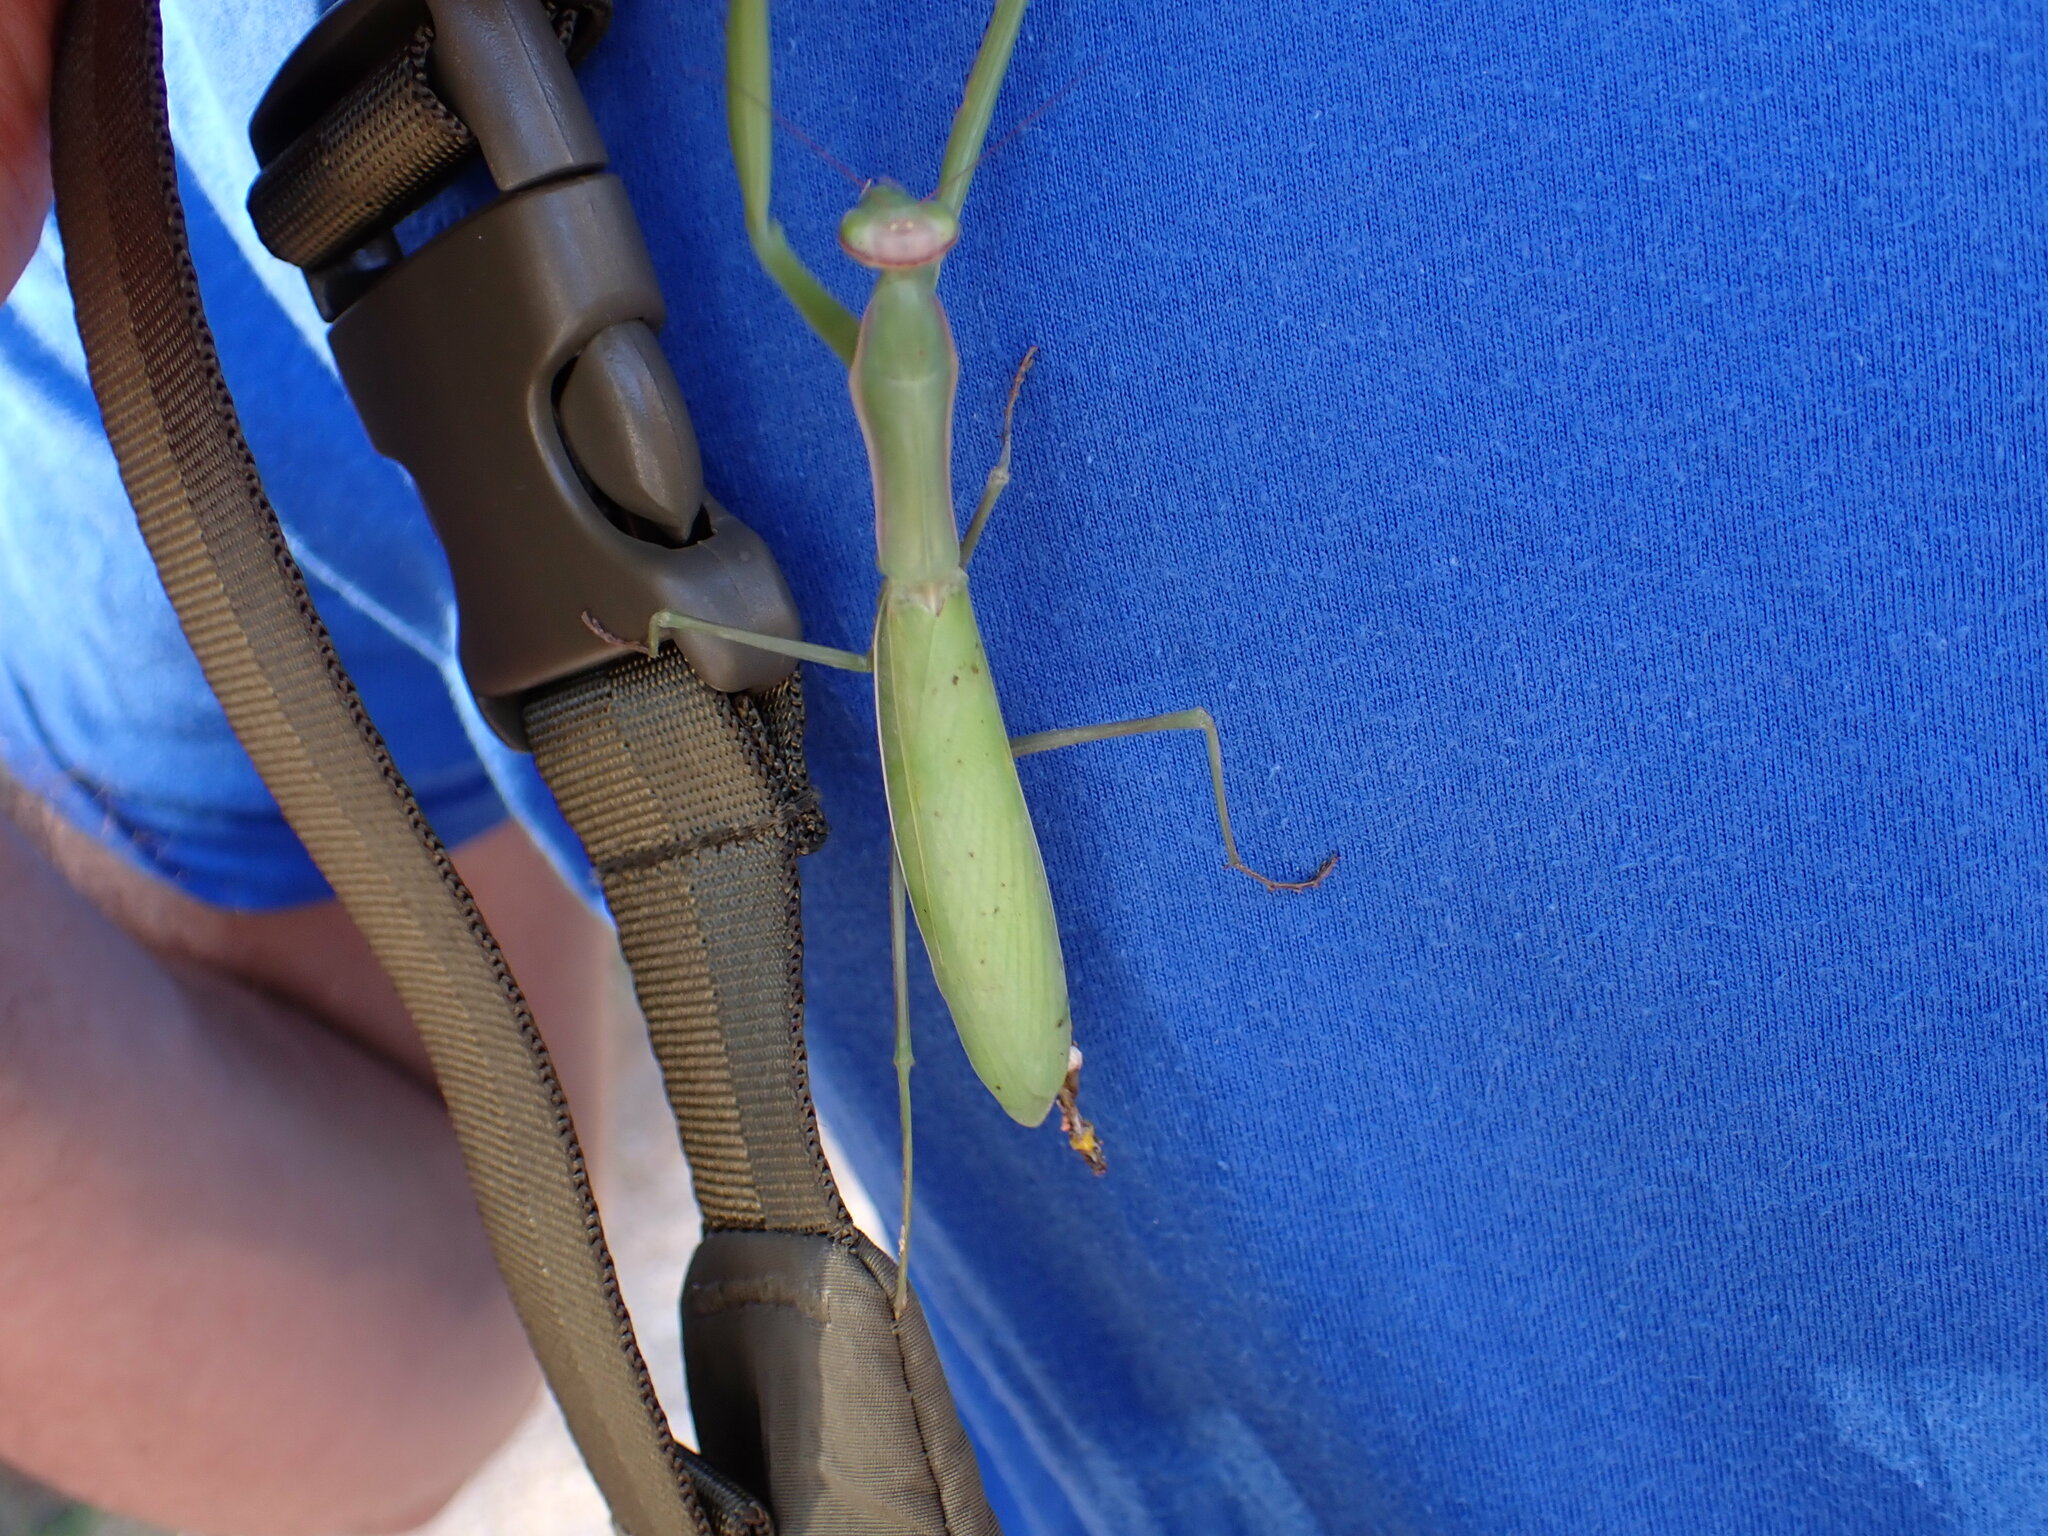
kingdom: Animalia
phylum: Arthropoda
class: Insecta
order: Mantodea
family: Mantidae
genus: Mantis
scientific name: Mantis religiosa
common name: Praying mantis
